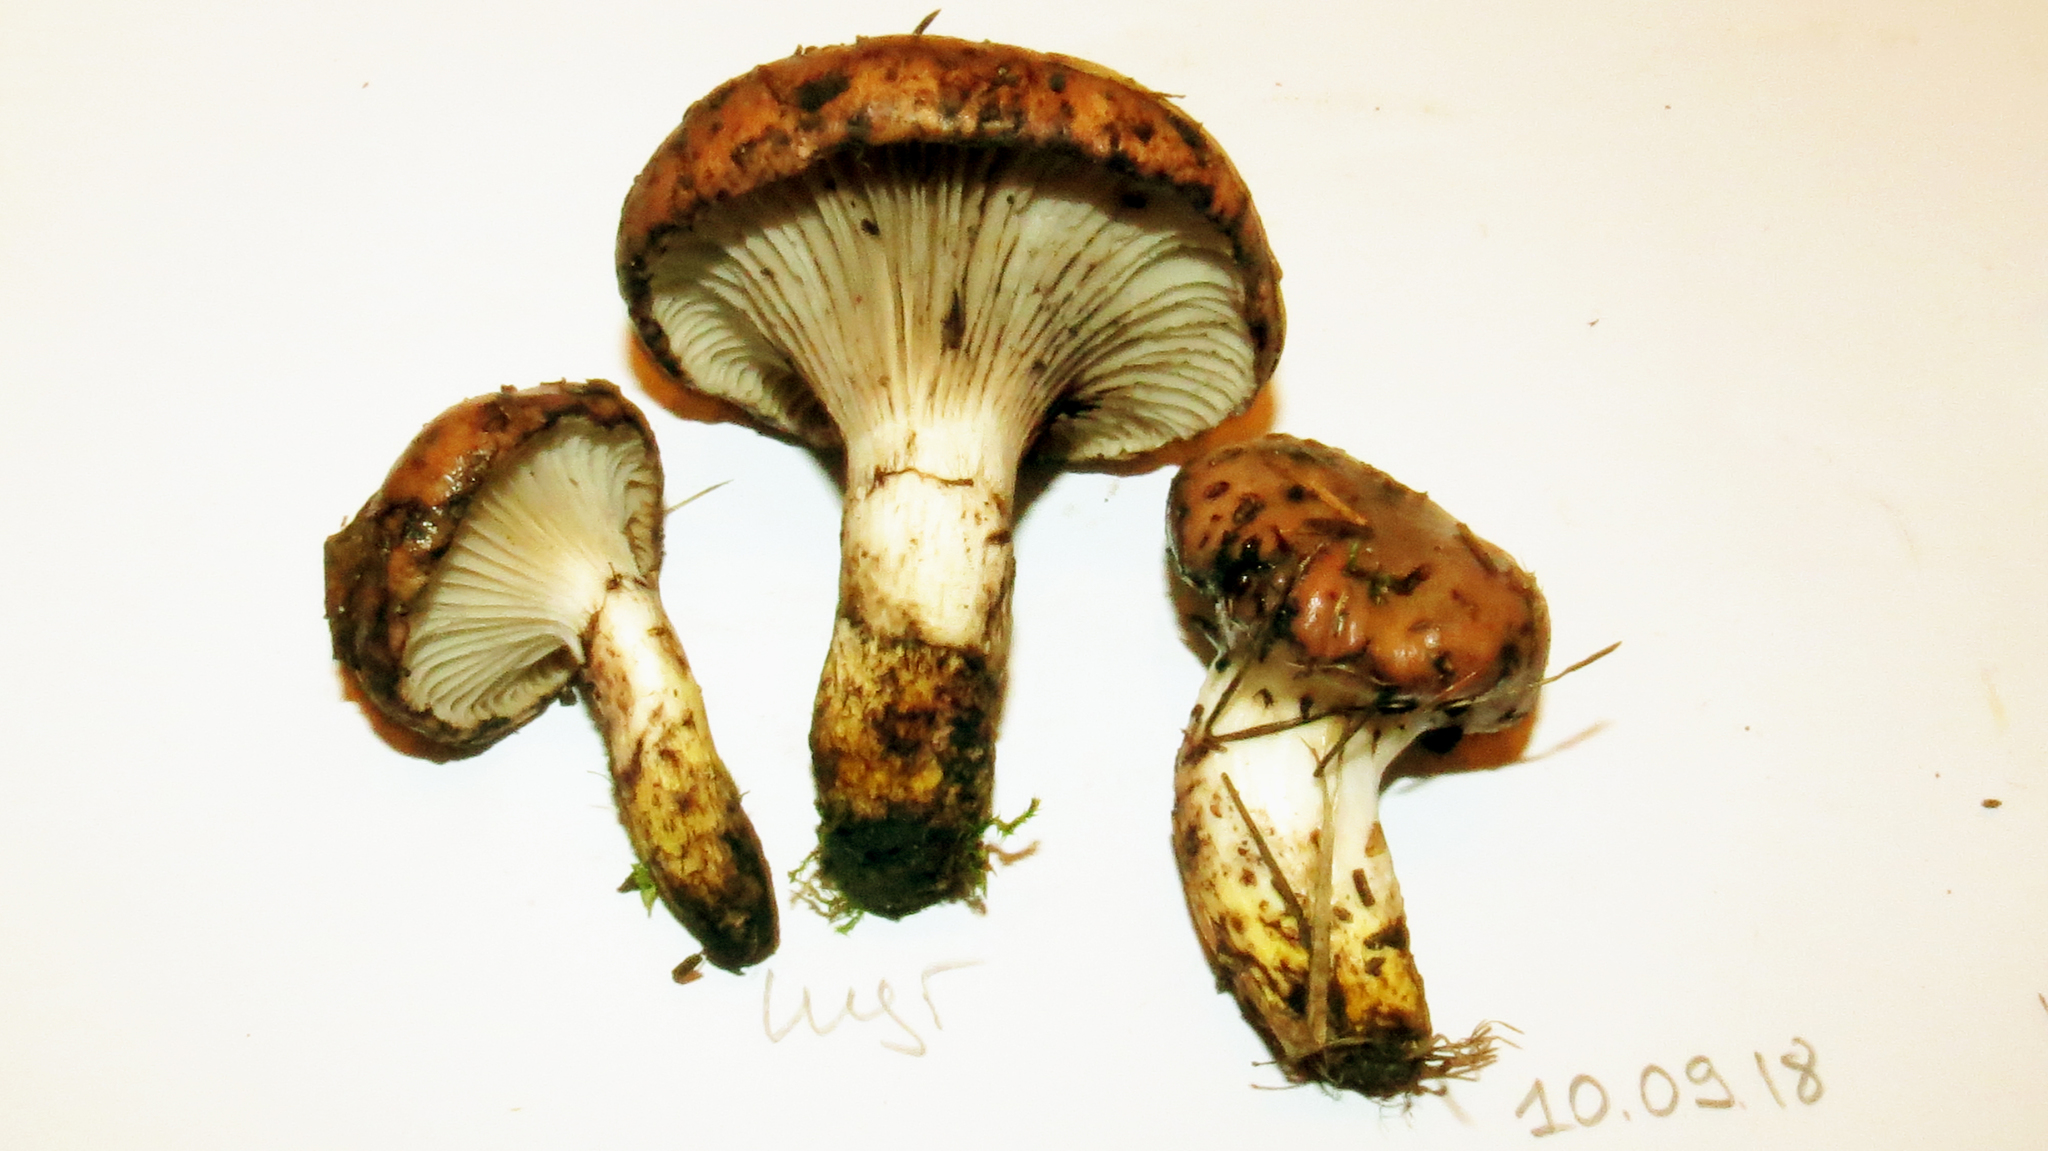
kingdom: Fungi
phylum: Basidiomycota
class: Agaricomycetes
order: Boletales
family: Gomphidiaceae
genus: Gomphidius
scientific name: Gomphidius glutinosus
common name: Slimy spike
